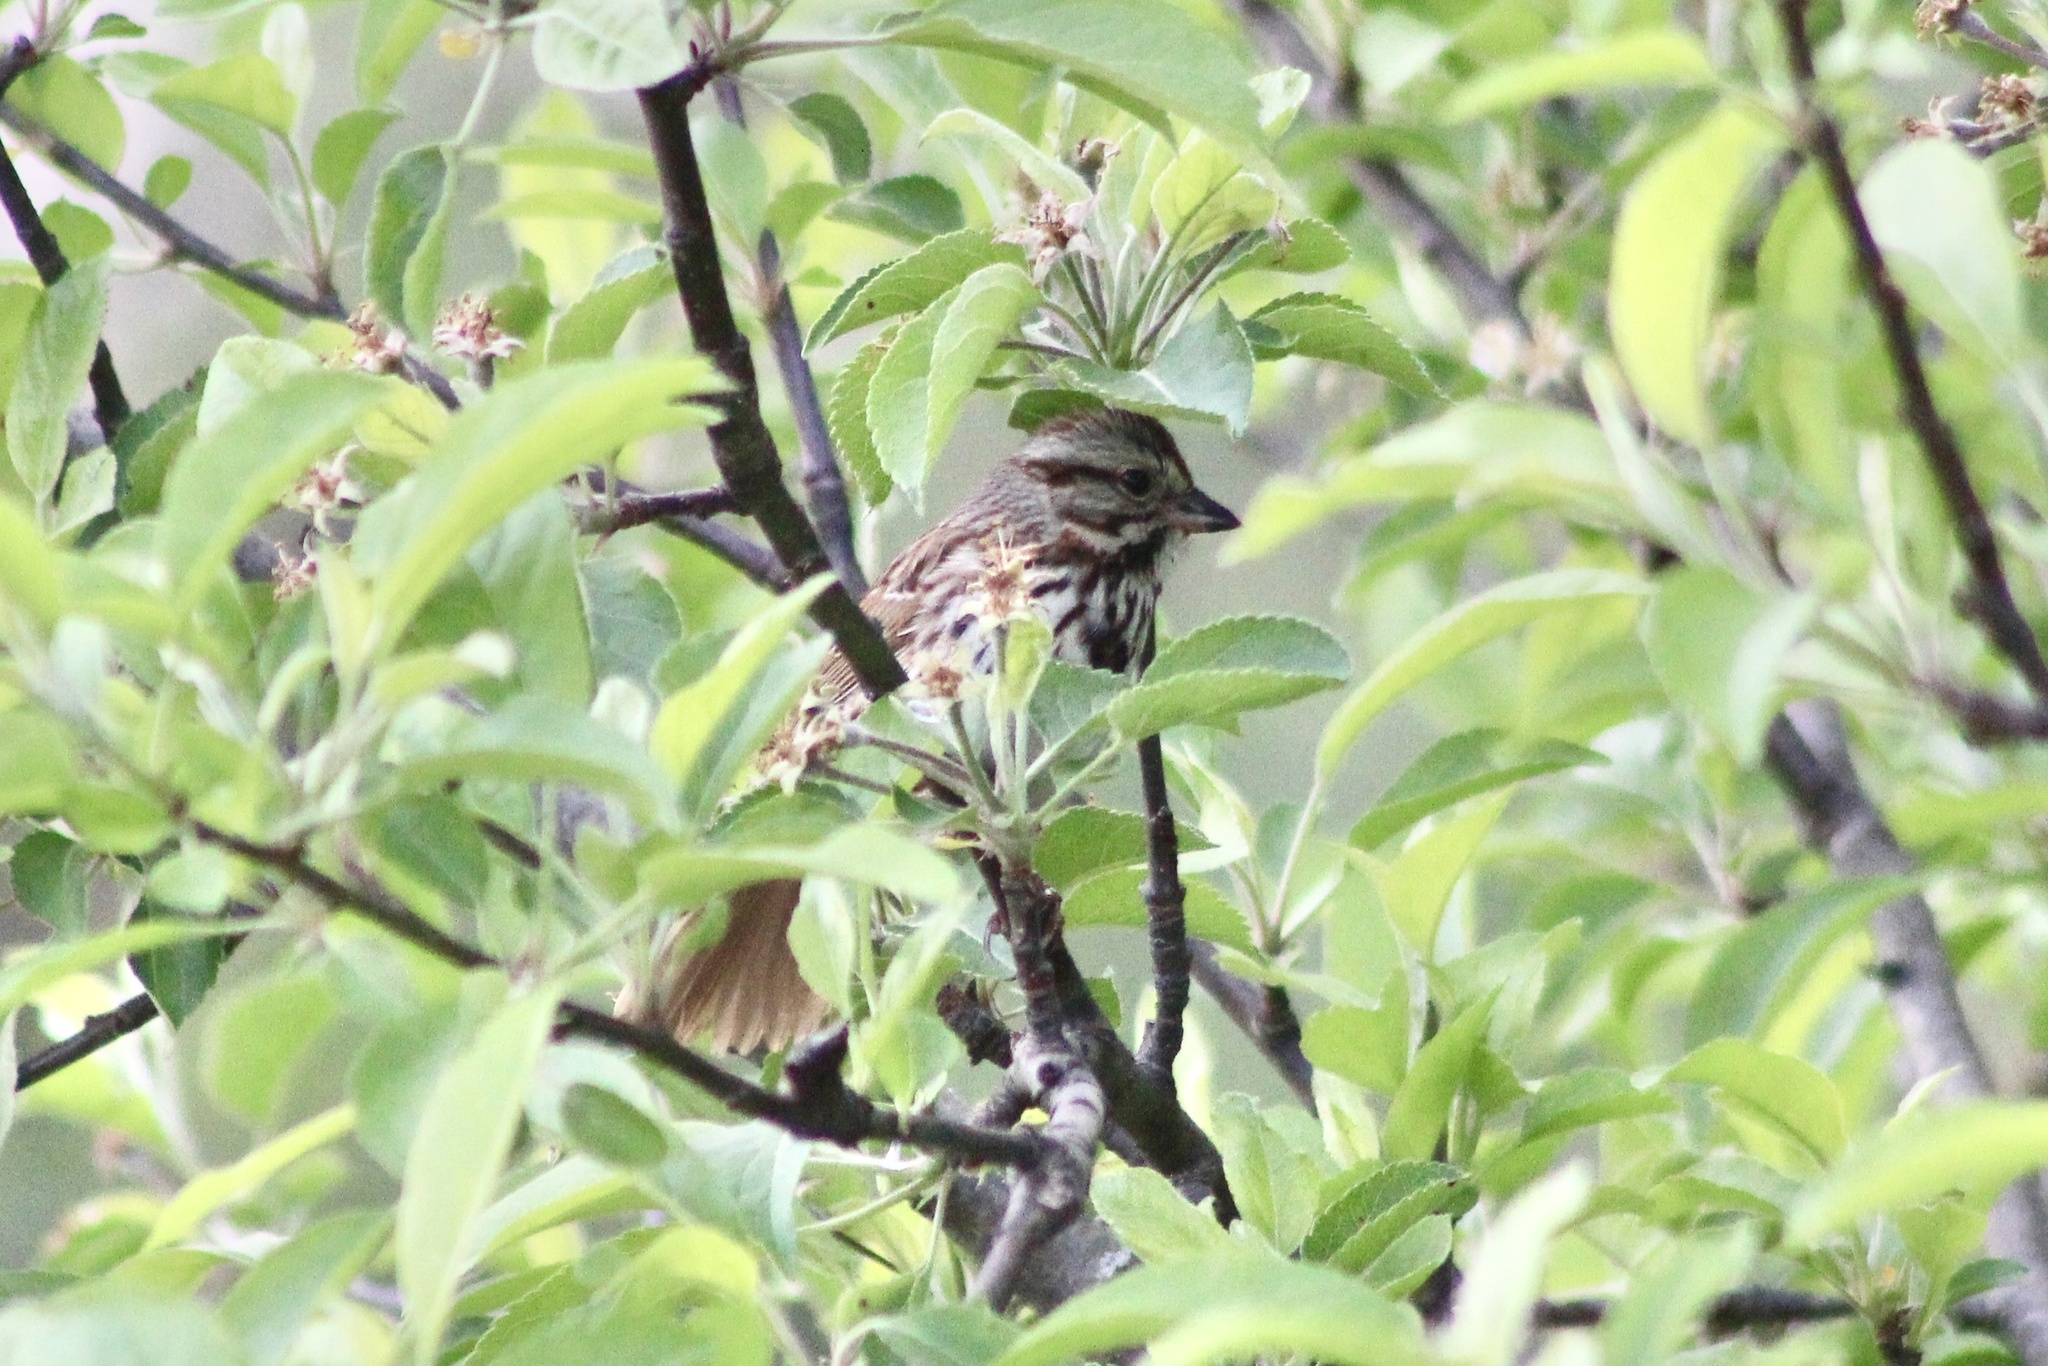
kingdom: Animalia
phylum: Chordata
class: Aves
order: Passeriformes
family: Passerellidae
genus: Melospiza
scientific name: Melospiza melodia
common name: Song sparrow
